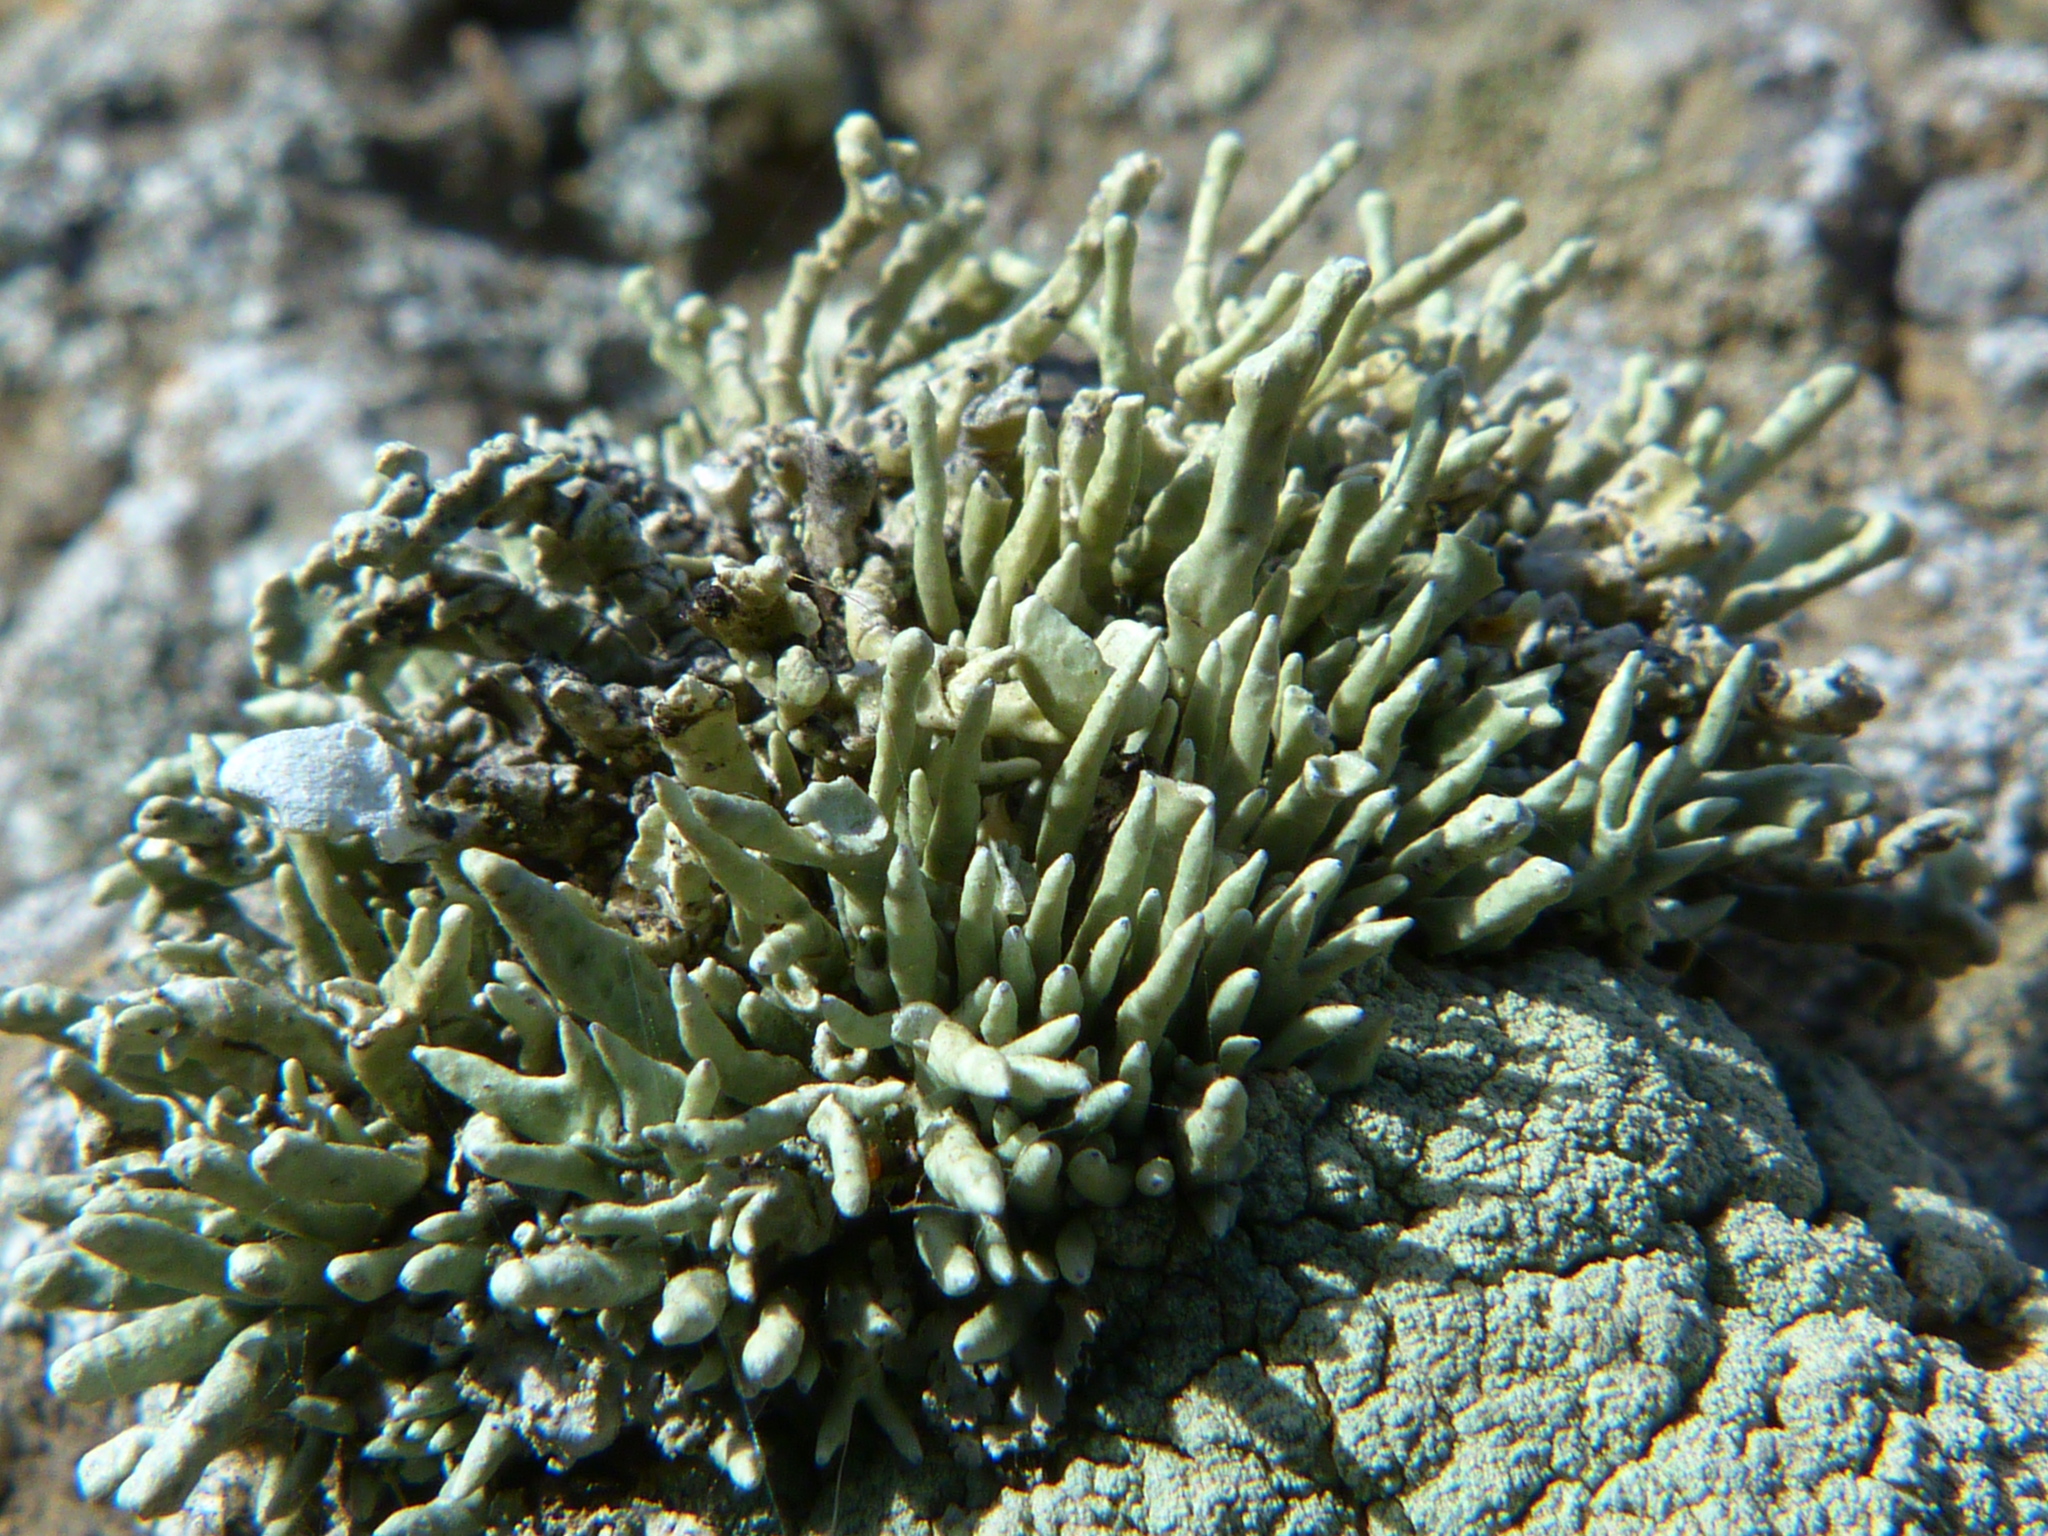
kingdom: Fungi
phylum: Ascomycota
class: Lecanoromycetes
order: Lecanorales
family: Ramalinaceae
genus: Niebla
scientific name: Niebla combeoides
